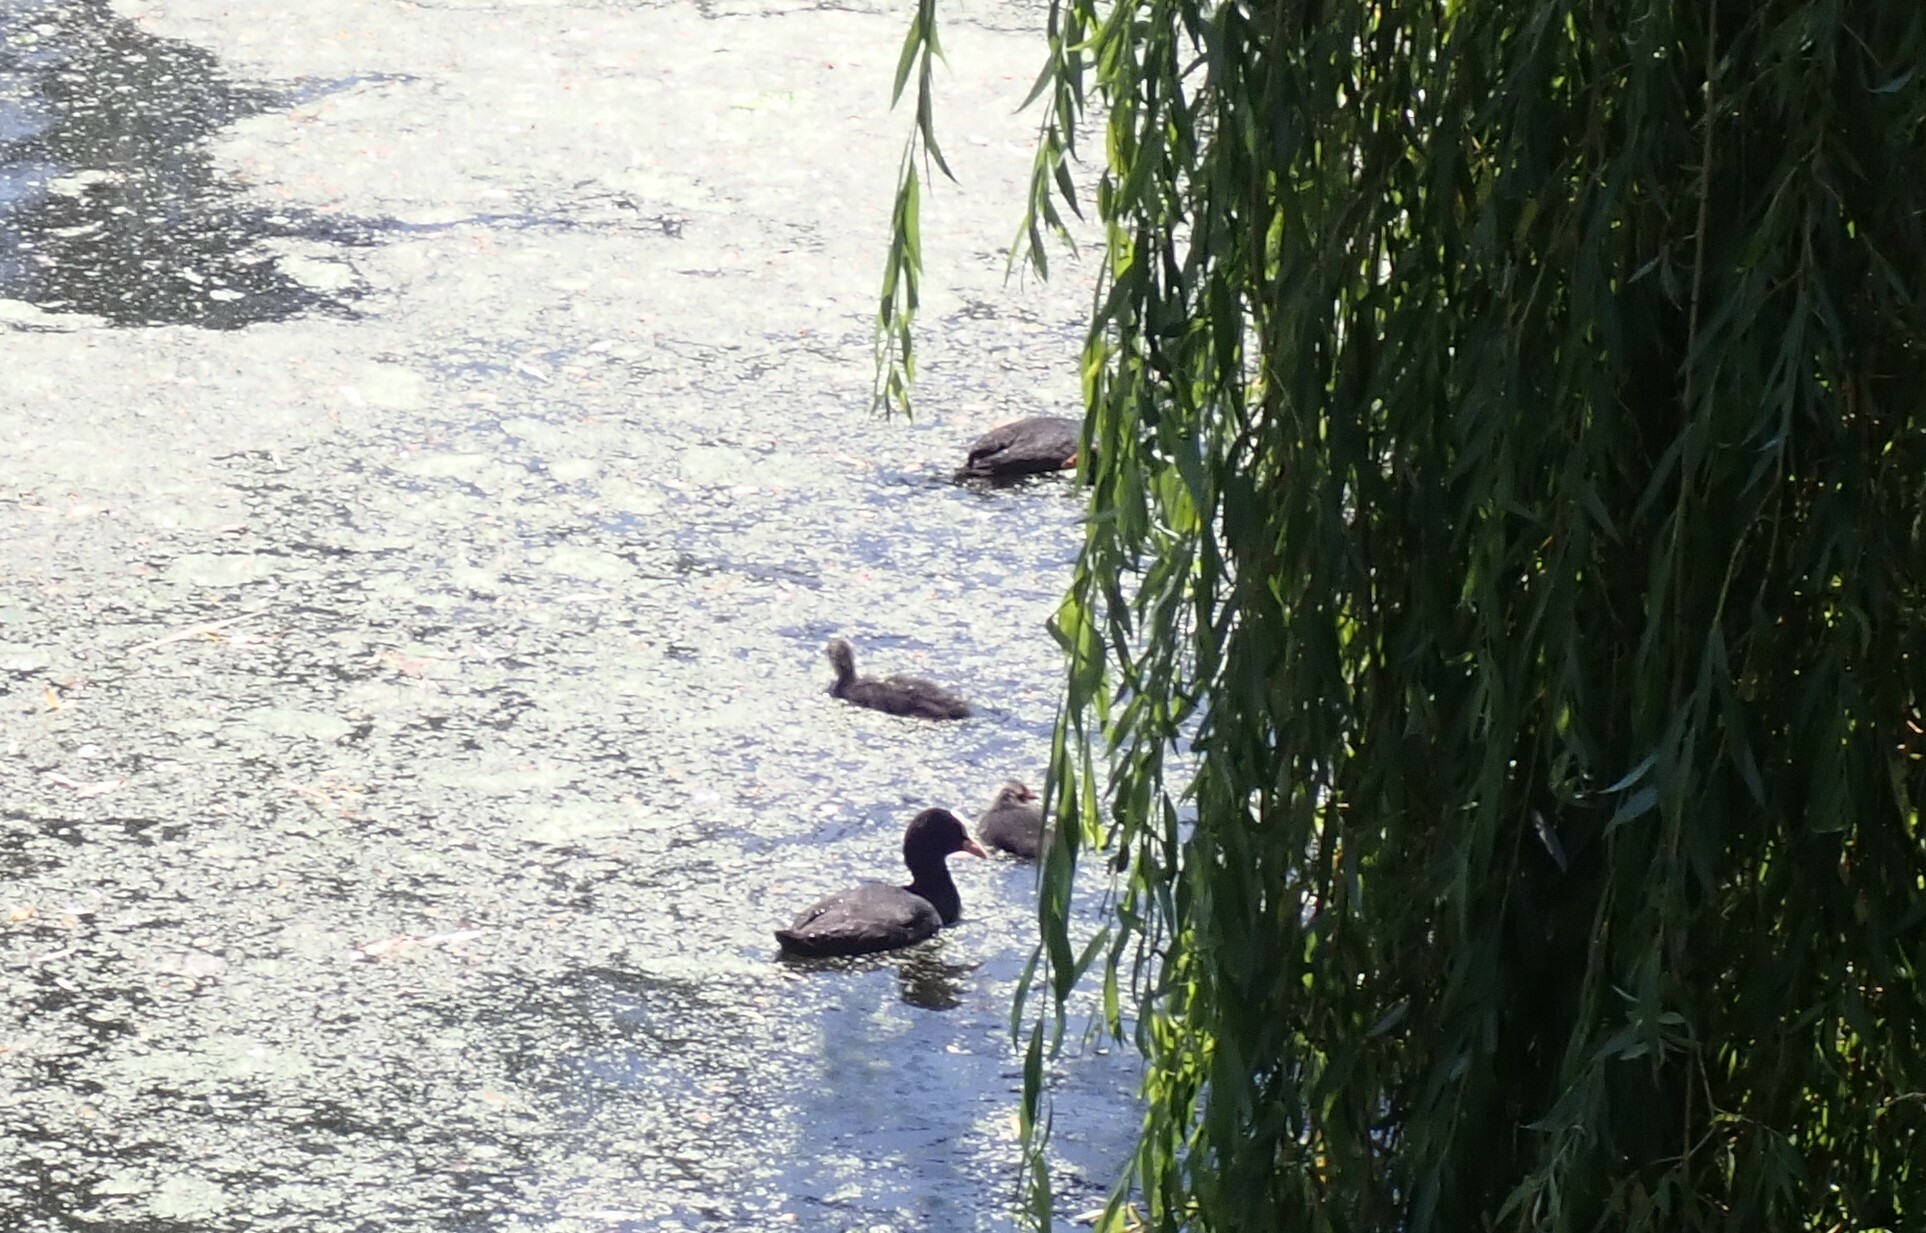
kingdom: Animalia
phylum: Chordata
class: Aves
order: Gruiformes
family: Rallidae
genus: Fulica
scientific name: Fulica atra
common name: Eurasian coot
